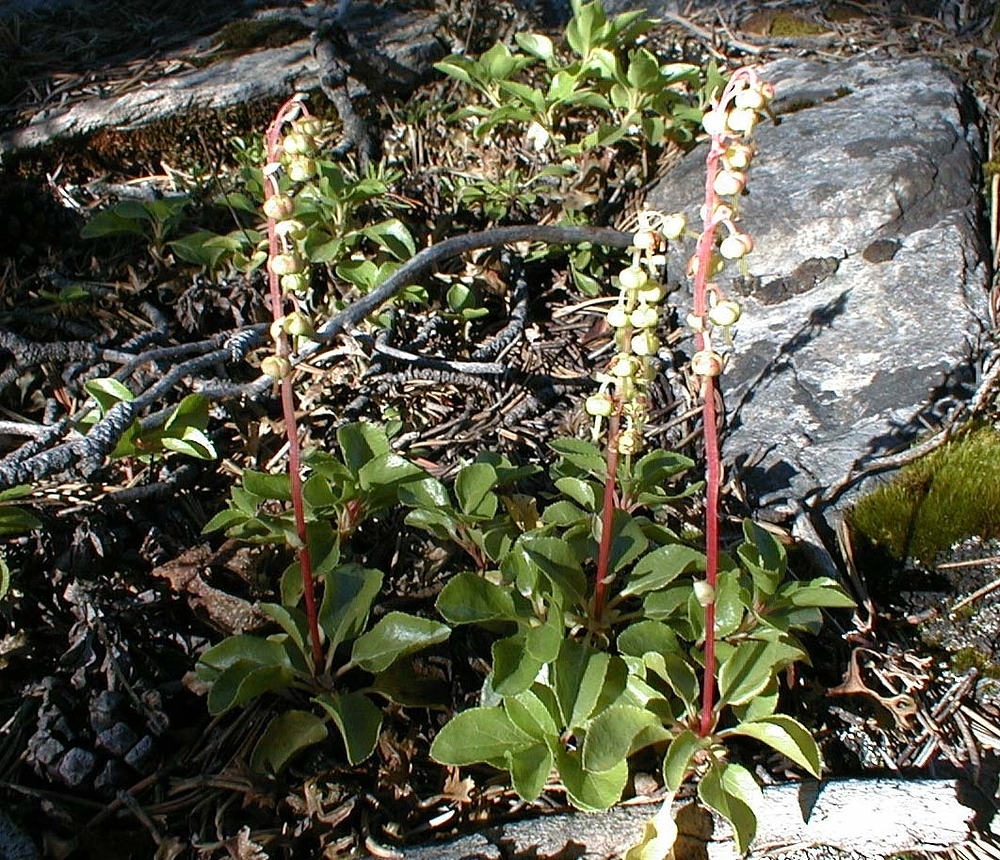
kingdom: Plantae
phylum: Tracheophyta
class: Magnoliopsida
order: Ericales
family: Ericaceae
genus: Orthilia
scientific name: Orthilia secunda
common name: One-sided orthilia
